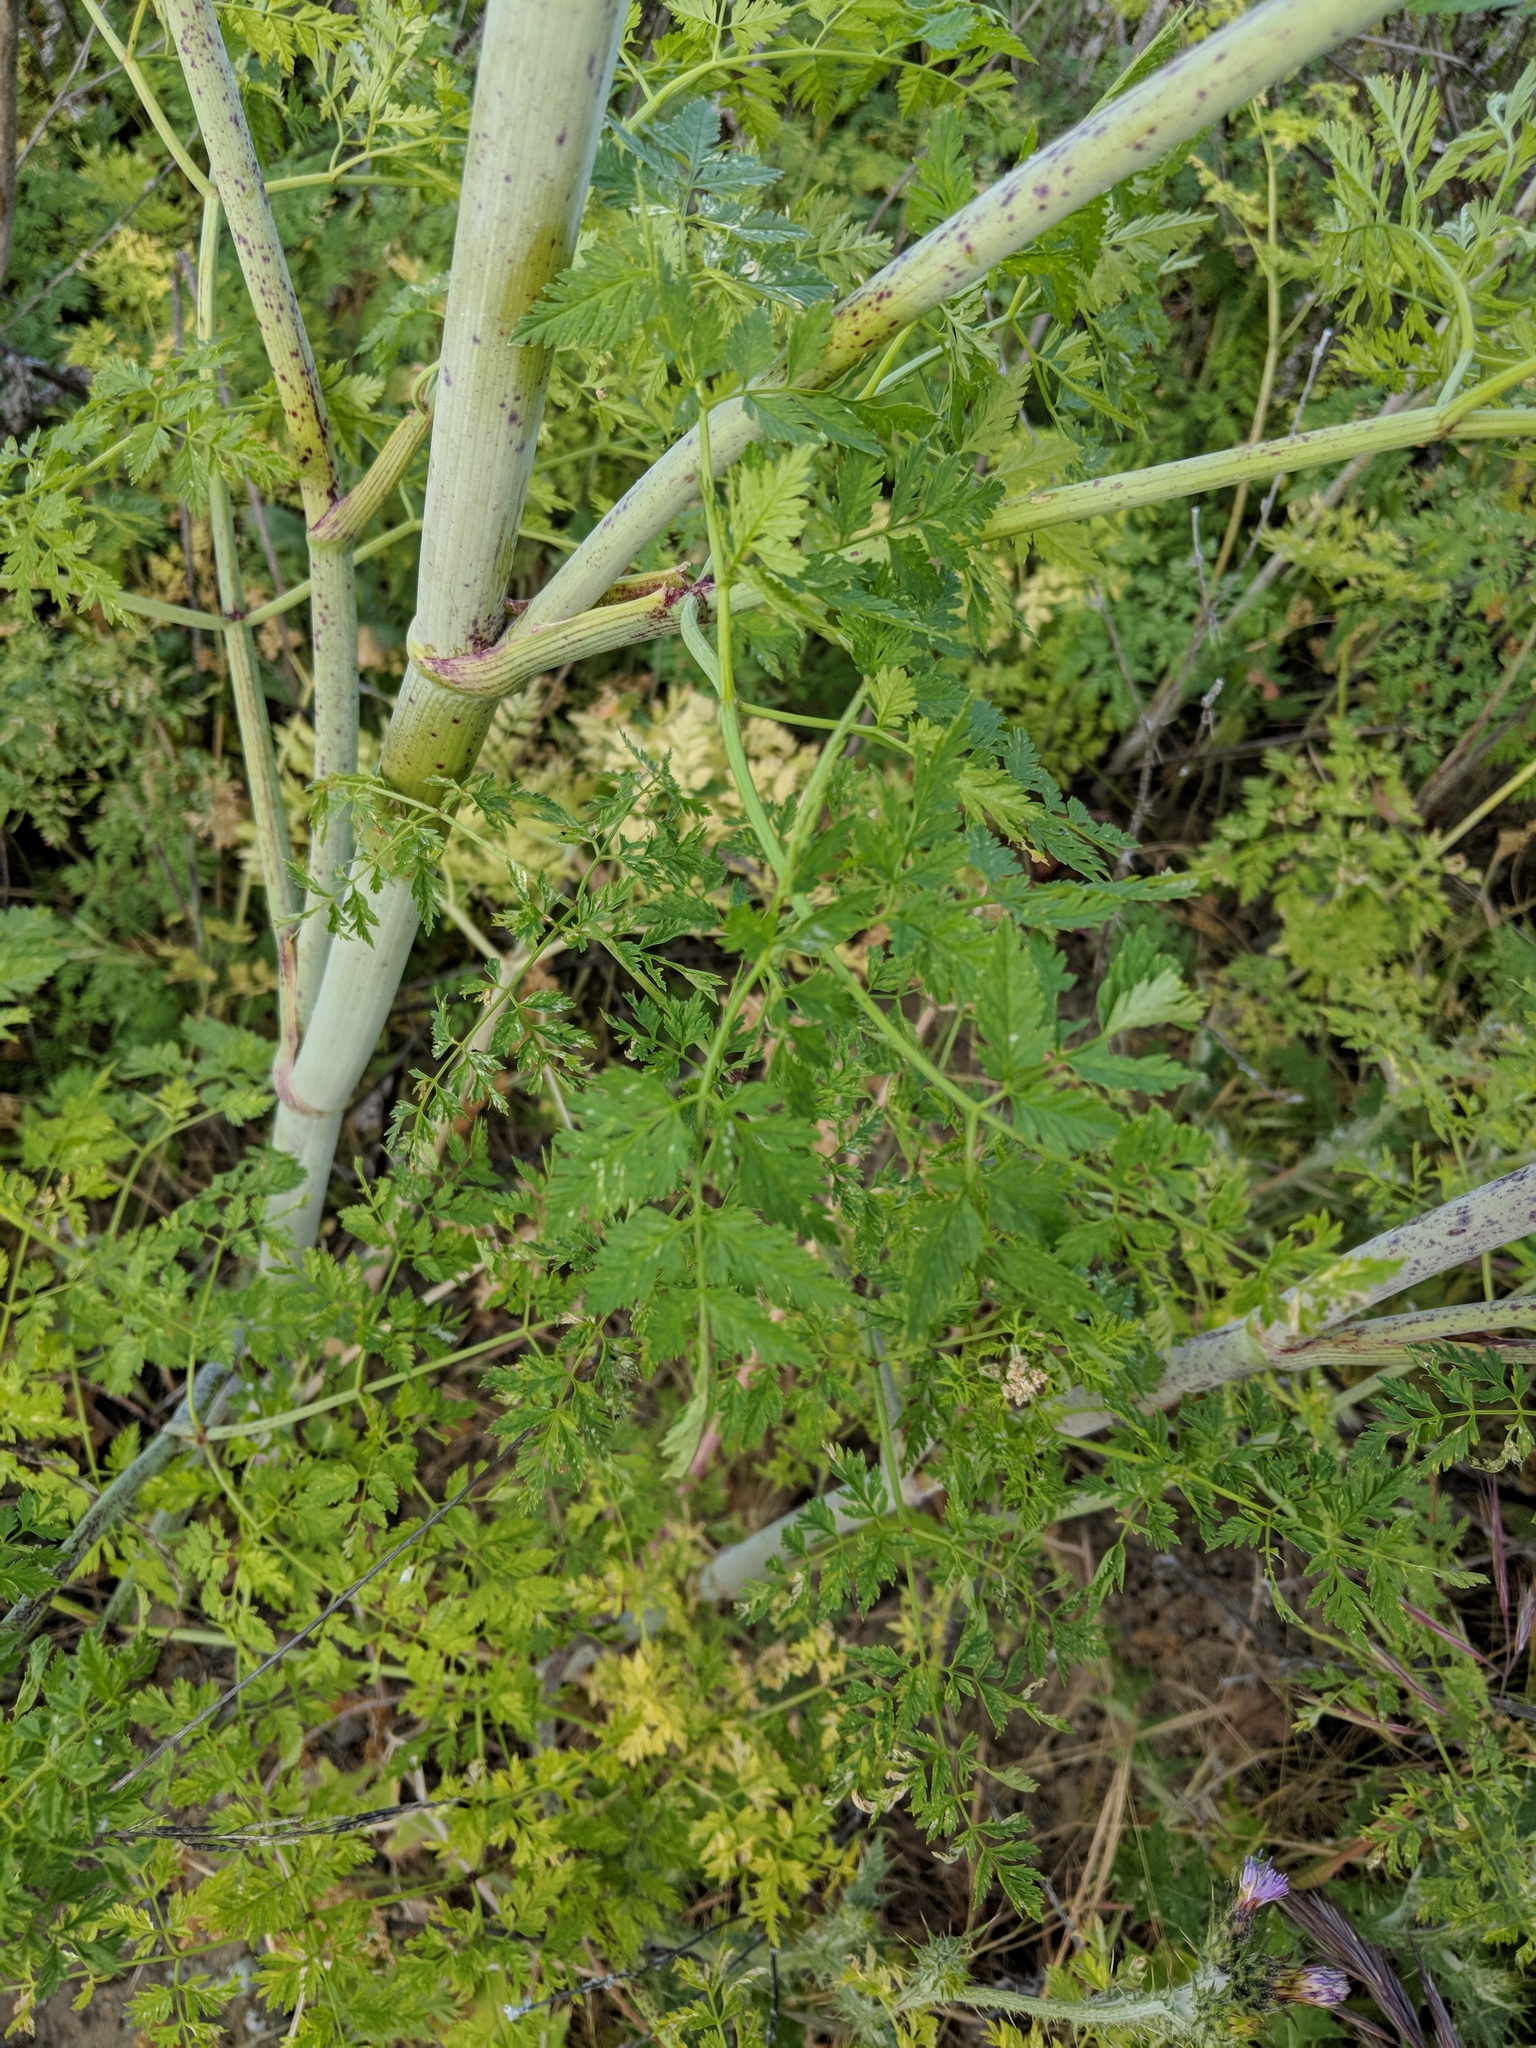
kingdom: Plantae
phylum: Tracheophyta
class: Magnoliopsida
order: Apiales
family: Apiaceae
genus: Conium
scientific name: Conium maculatum
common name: Hemlock
